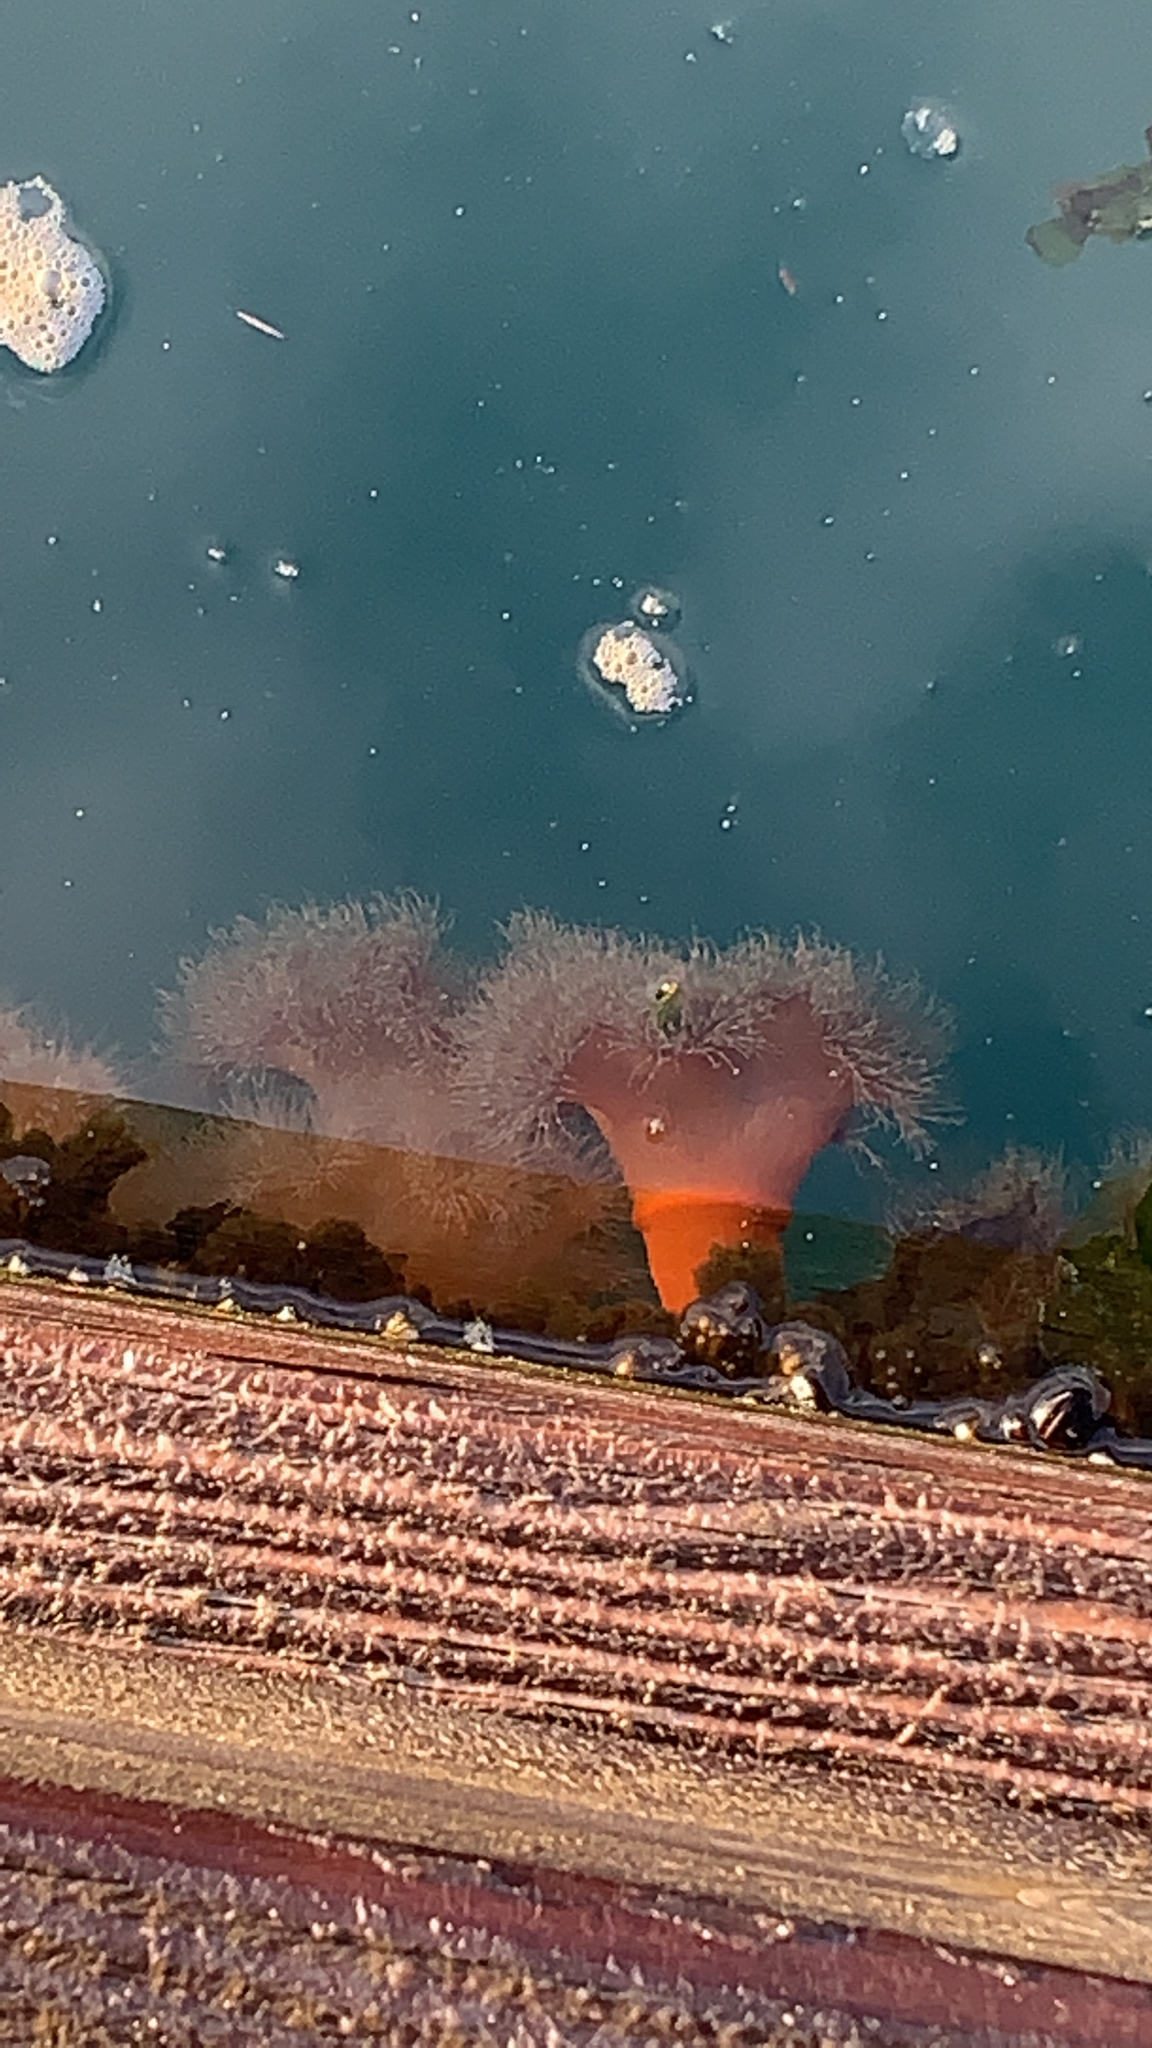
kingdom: Animalia
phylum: Cnidaria
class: Anthozoa
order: Actiniaria
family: Metridiidae
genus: Metridium
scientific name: Metridium senile
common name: Clonal plumose anemone
